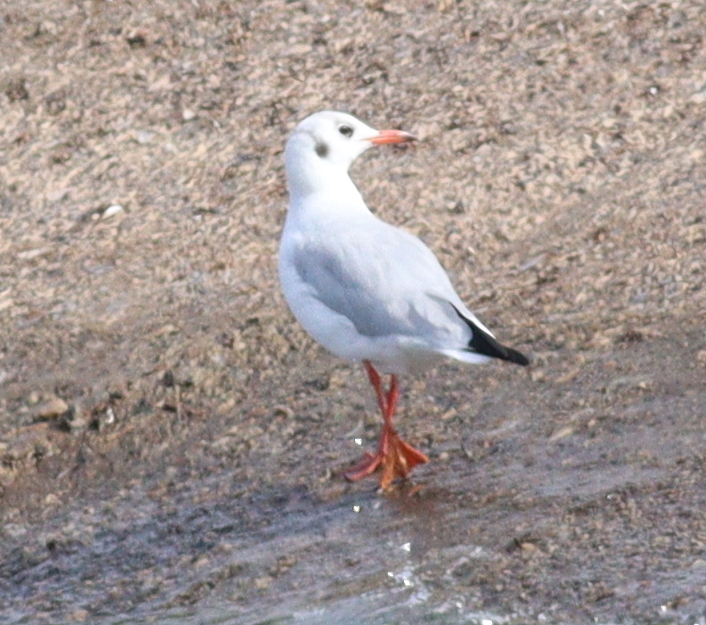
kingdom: Animalia
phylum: Chordata
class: Aves
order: Charadriiformes
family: Laridae
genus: Chroicocephalus
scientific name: Chroicocephalus ridibundus
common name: Black-headed gull
